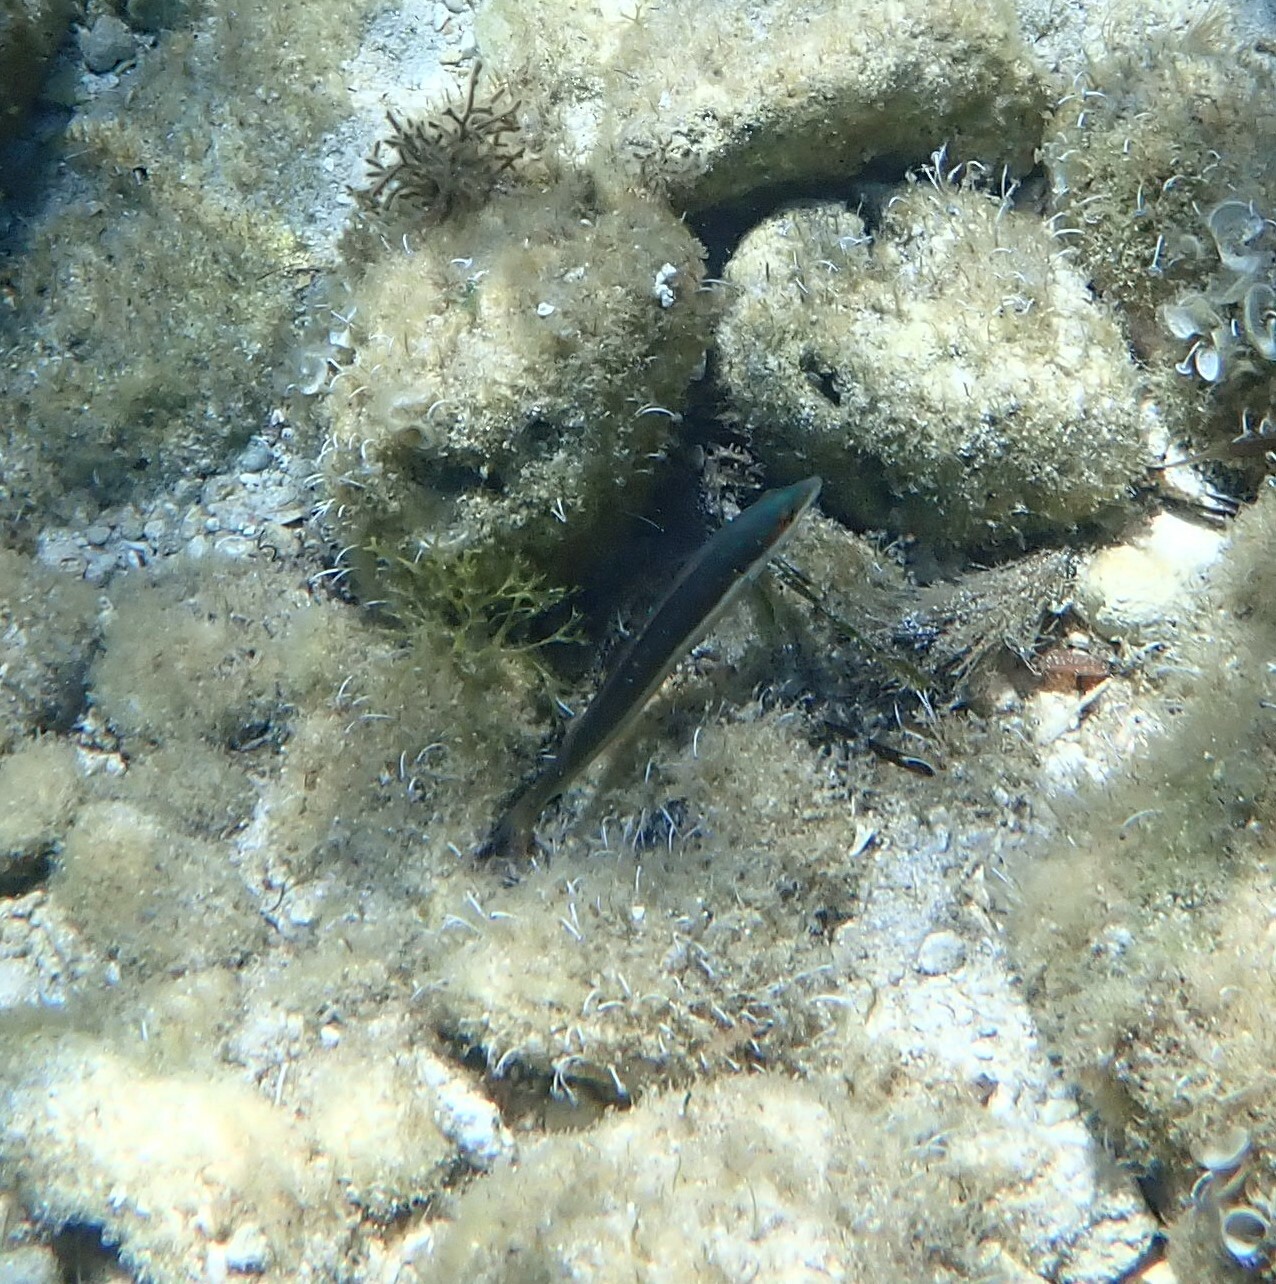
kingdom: Animalia
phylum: Chordata
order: Perciformes
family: Labridae
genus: Coris
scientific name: Coris julis
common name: Rainbow wrasse
